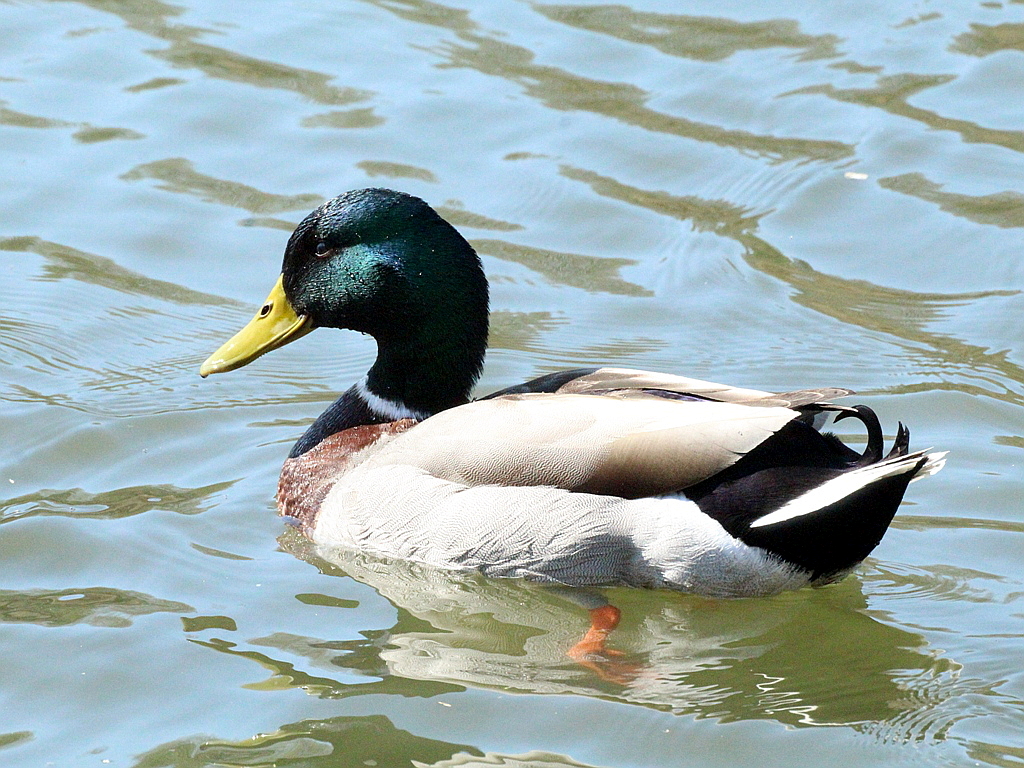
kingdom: Animalia
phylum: Chordata
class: Aves
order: Anseriformes
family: Anatidae
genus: Anas
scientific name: Anas platyrhynchos
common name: Mallard
